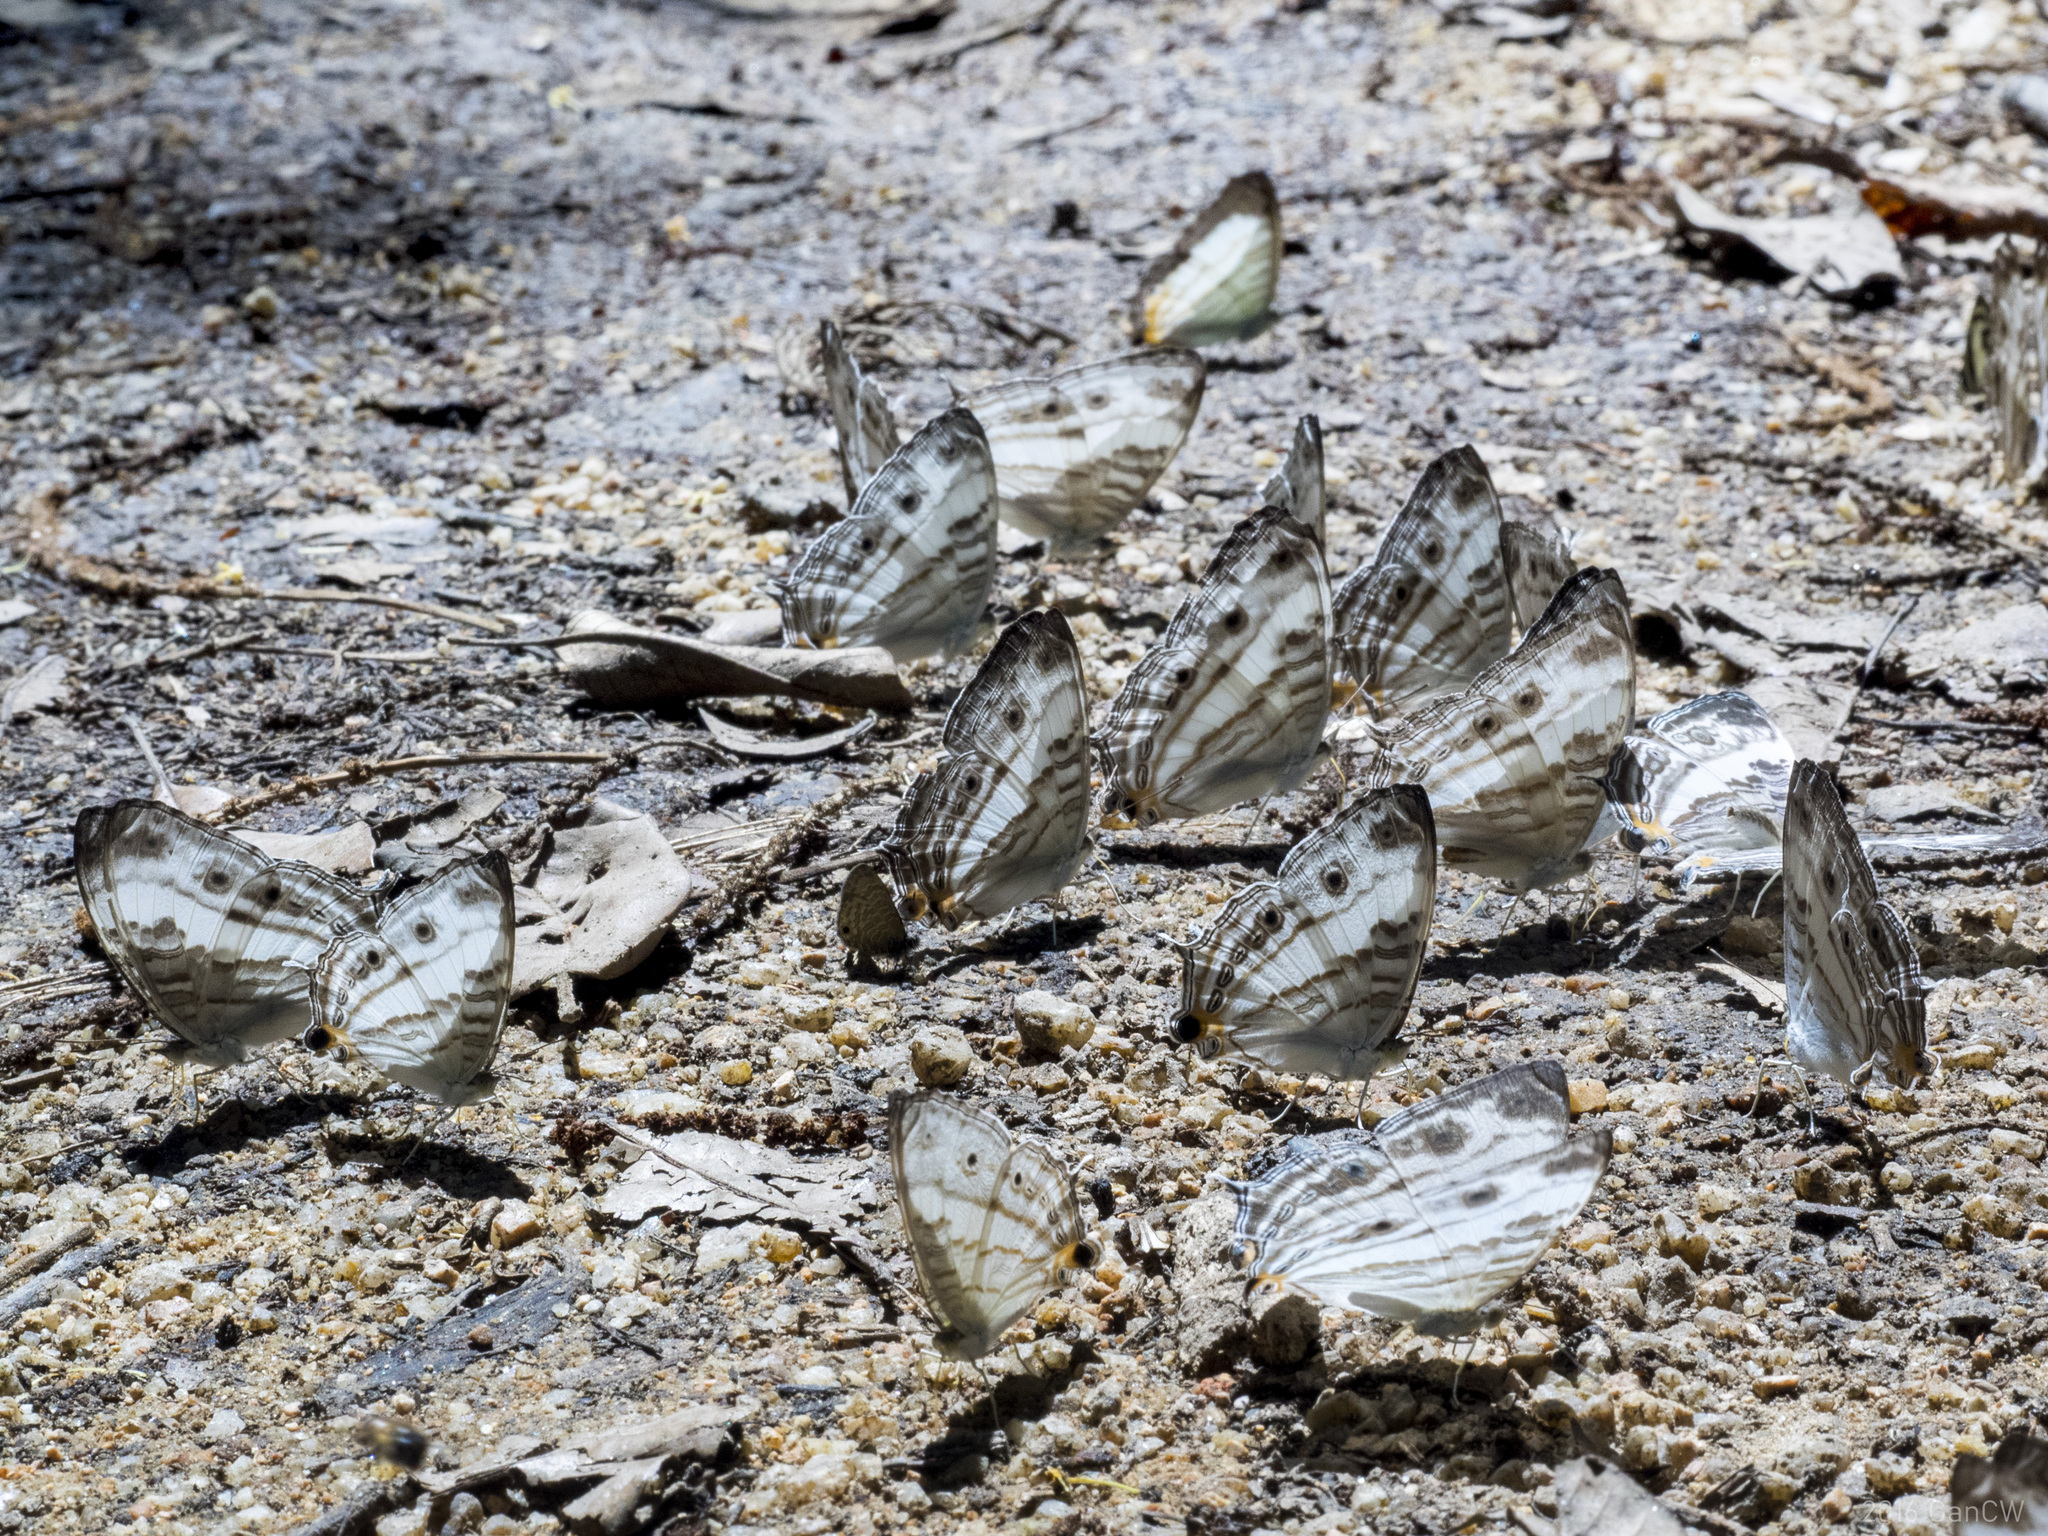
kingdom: Animalia
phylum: Arthropoda
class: Insecta
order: Lepidoptera
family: Nymphalidae
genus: Cyrestis
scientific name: Cyrestis cocles
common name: Marbled map
